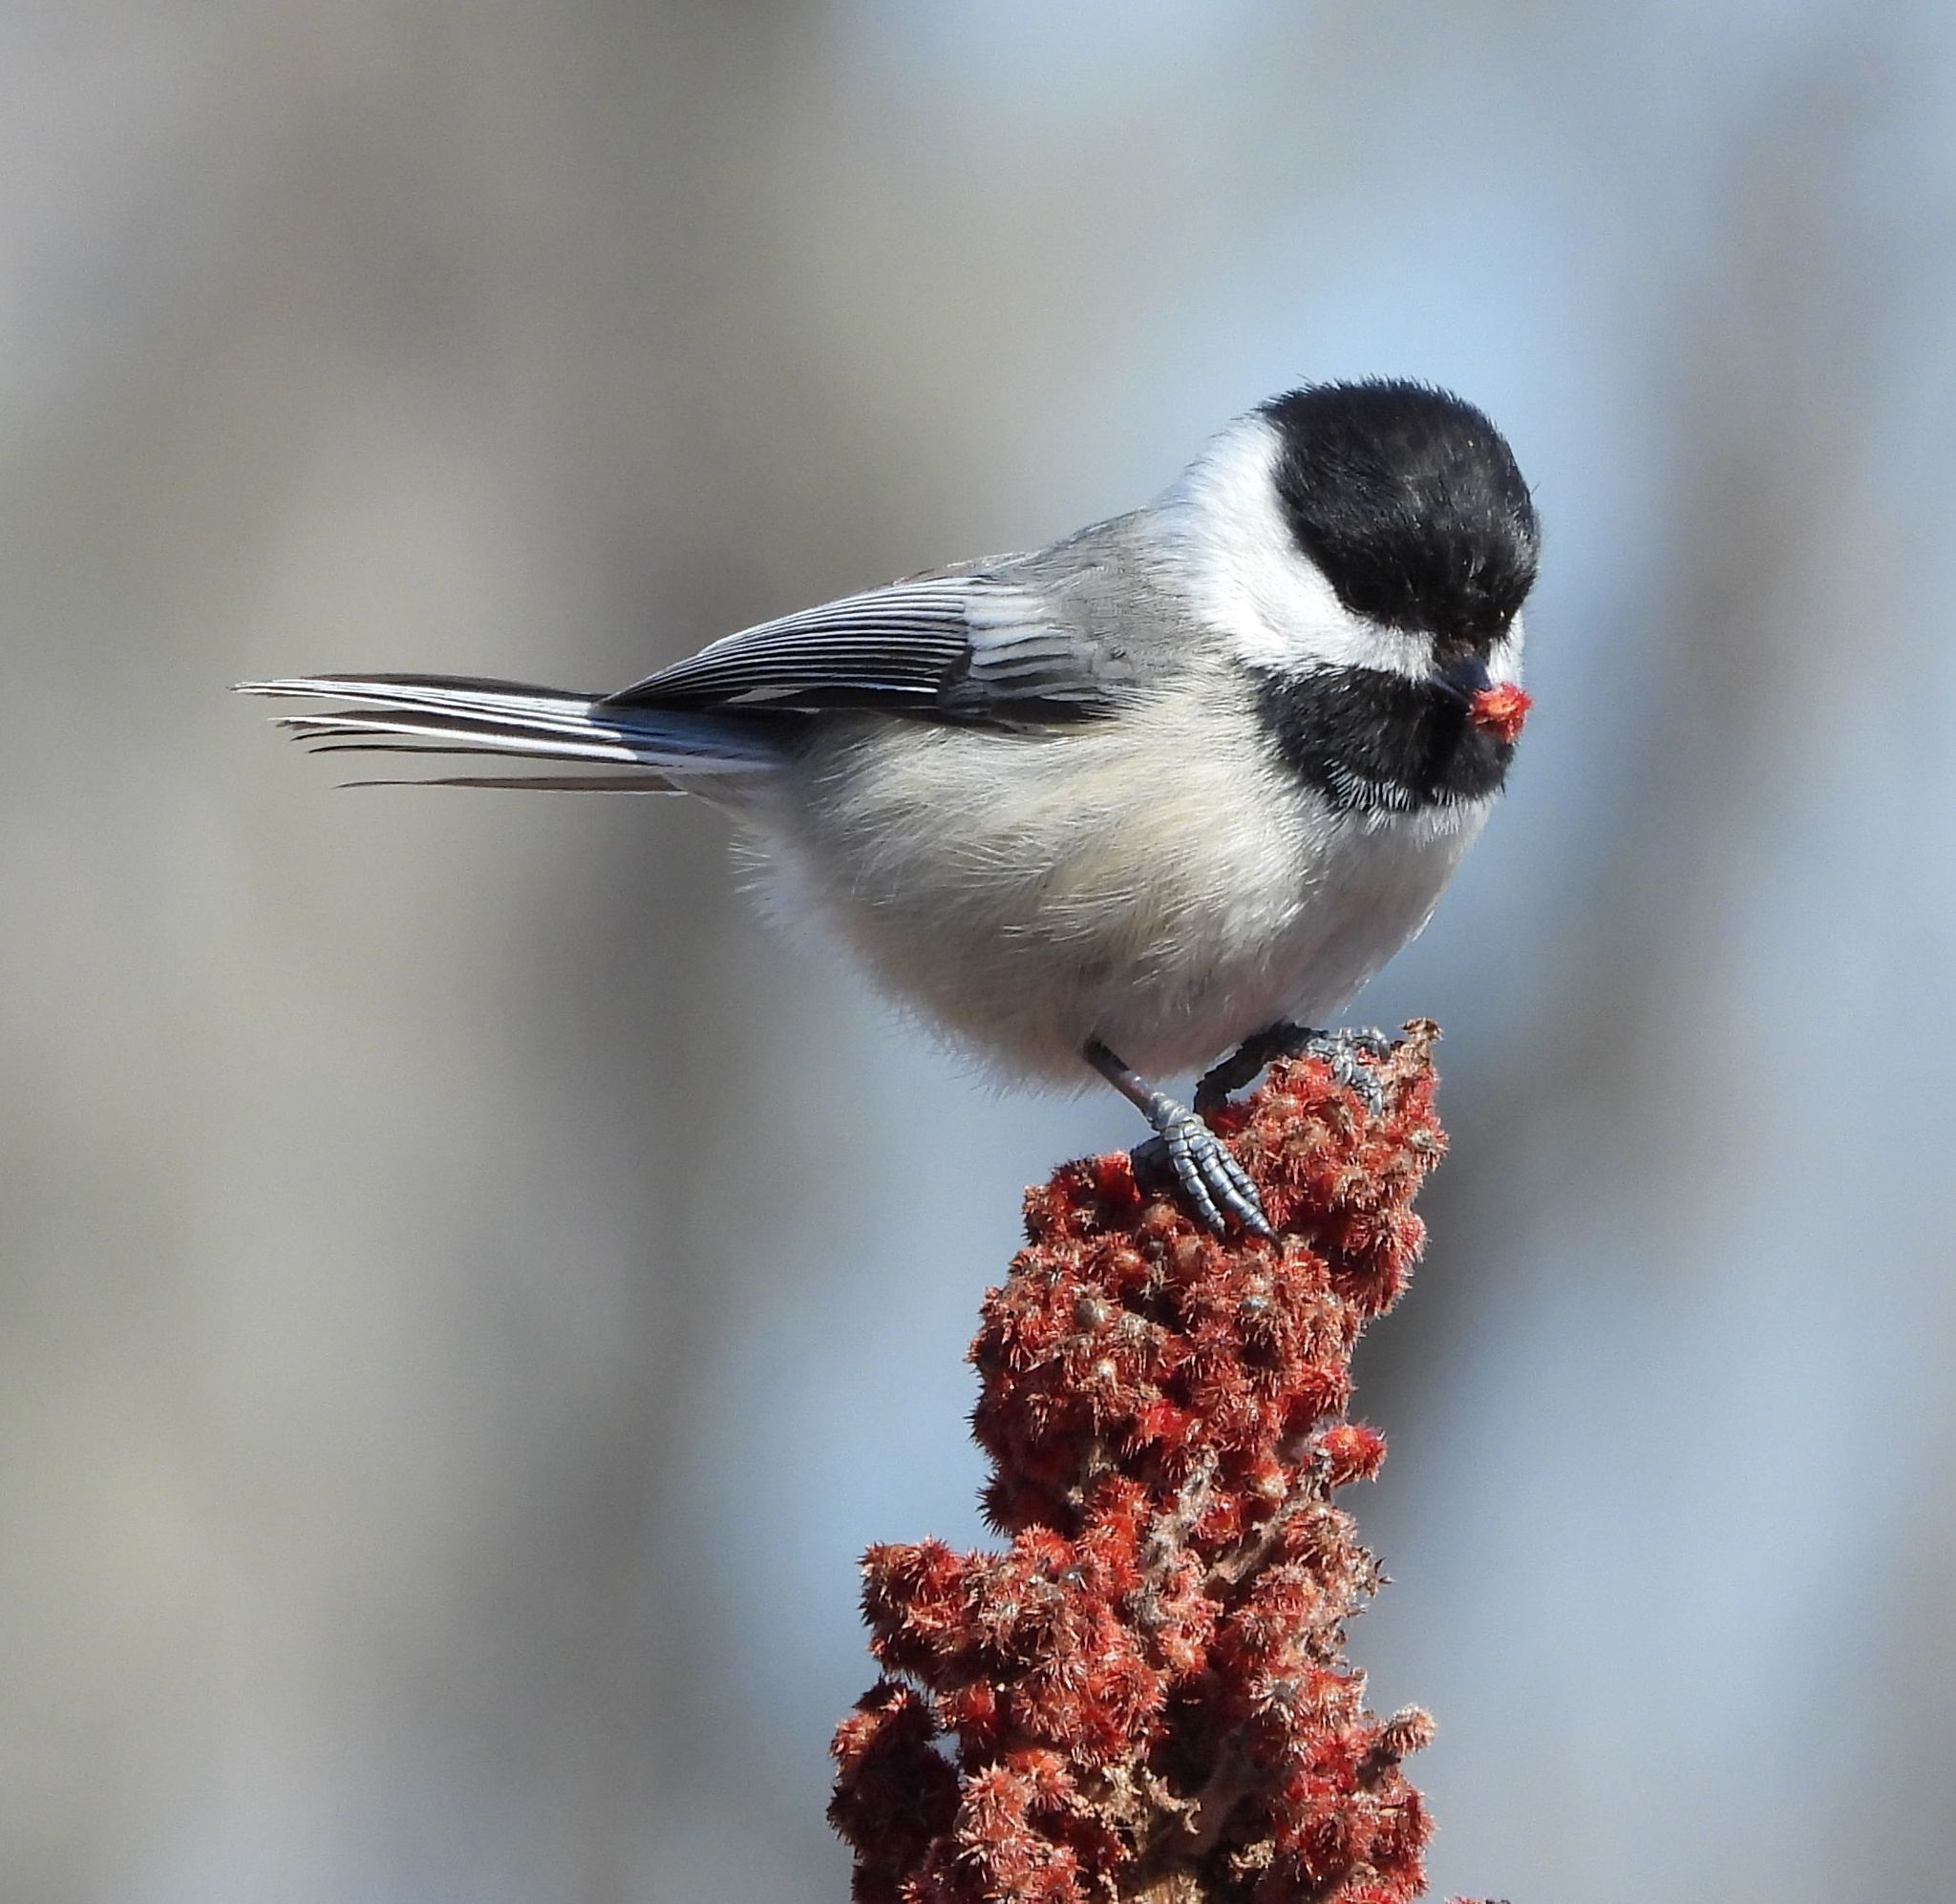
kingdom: Animalia
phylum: Chordata
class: Aves
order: Passeriformes
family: Paridae
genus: Poecile
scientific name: Poecile atricapillus
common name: Black-capped chickadee
